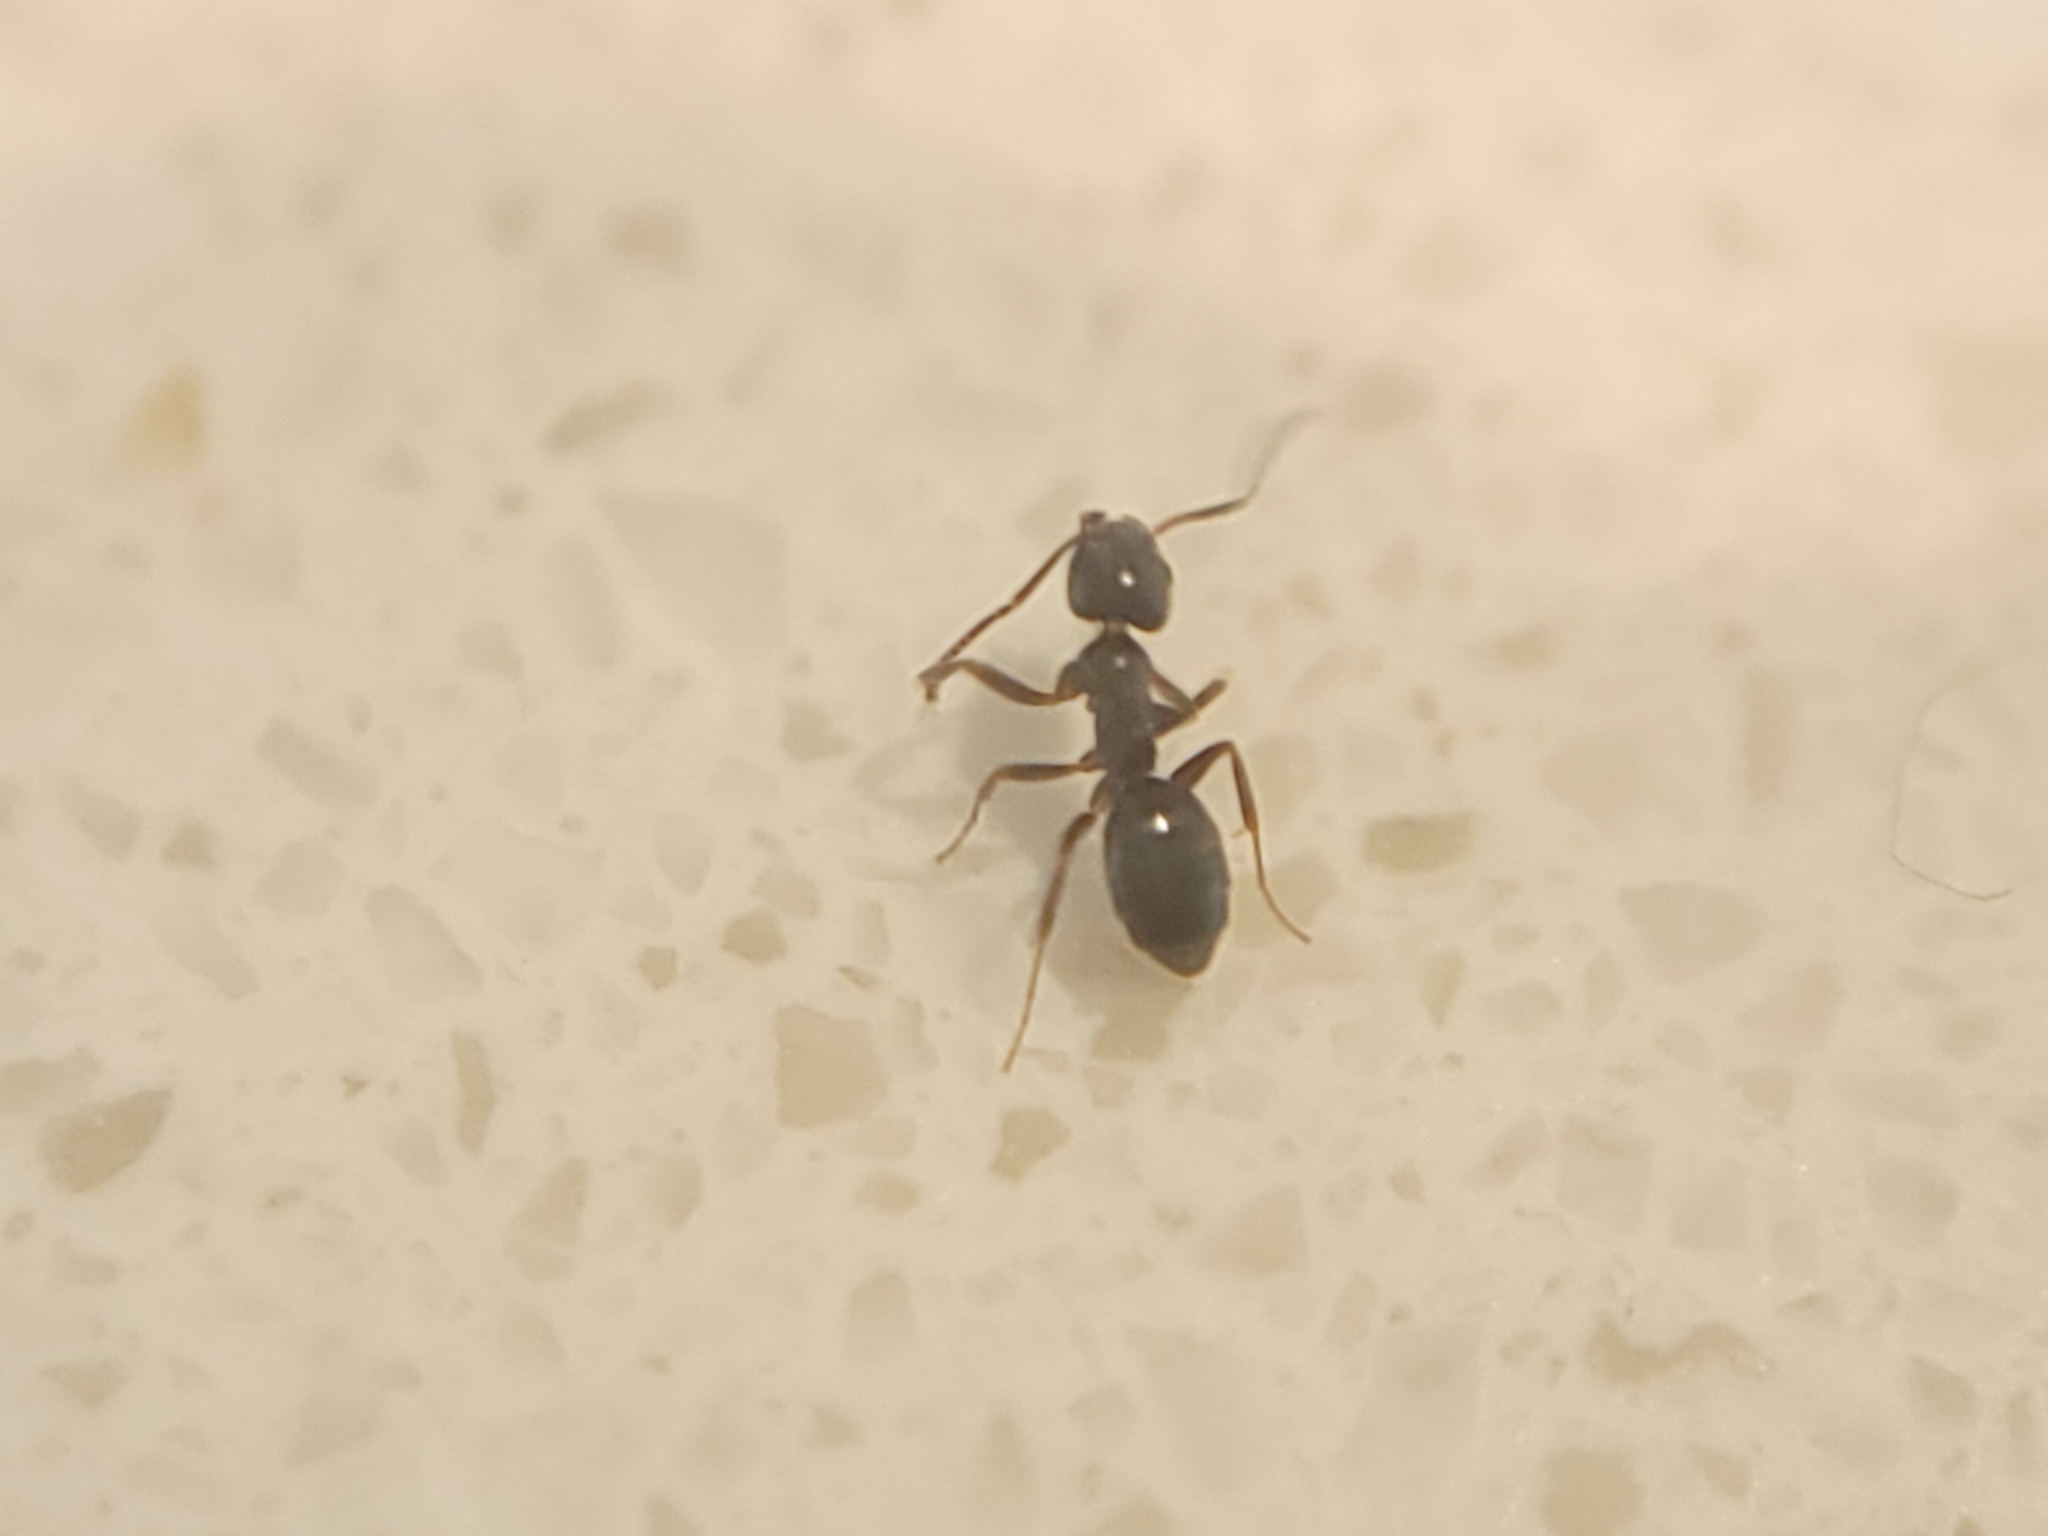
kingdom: Animalia
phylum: Arthropoda
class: Insecta
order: Hymenoptera
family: Formicidae
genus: Tapinoma
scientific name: Tapinoma sessile
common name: Odorous house ant
